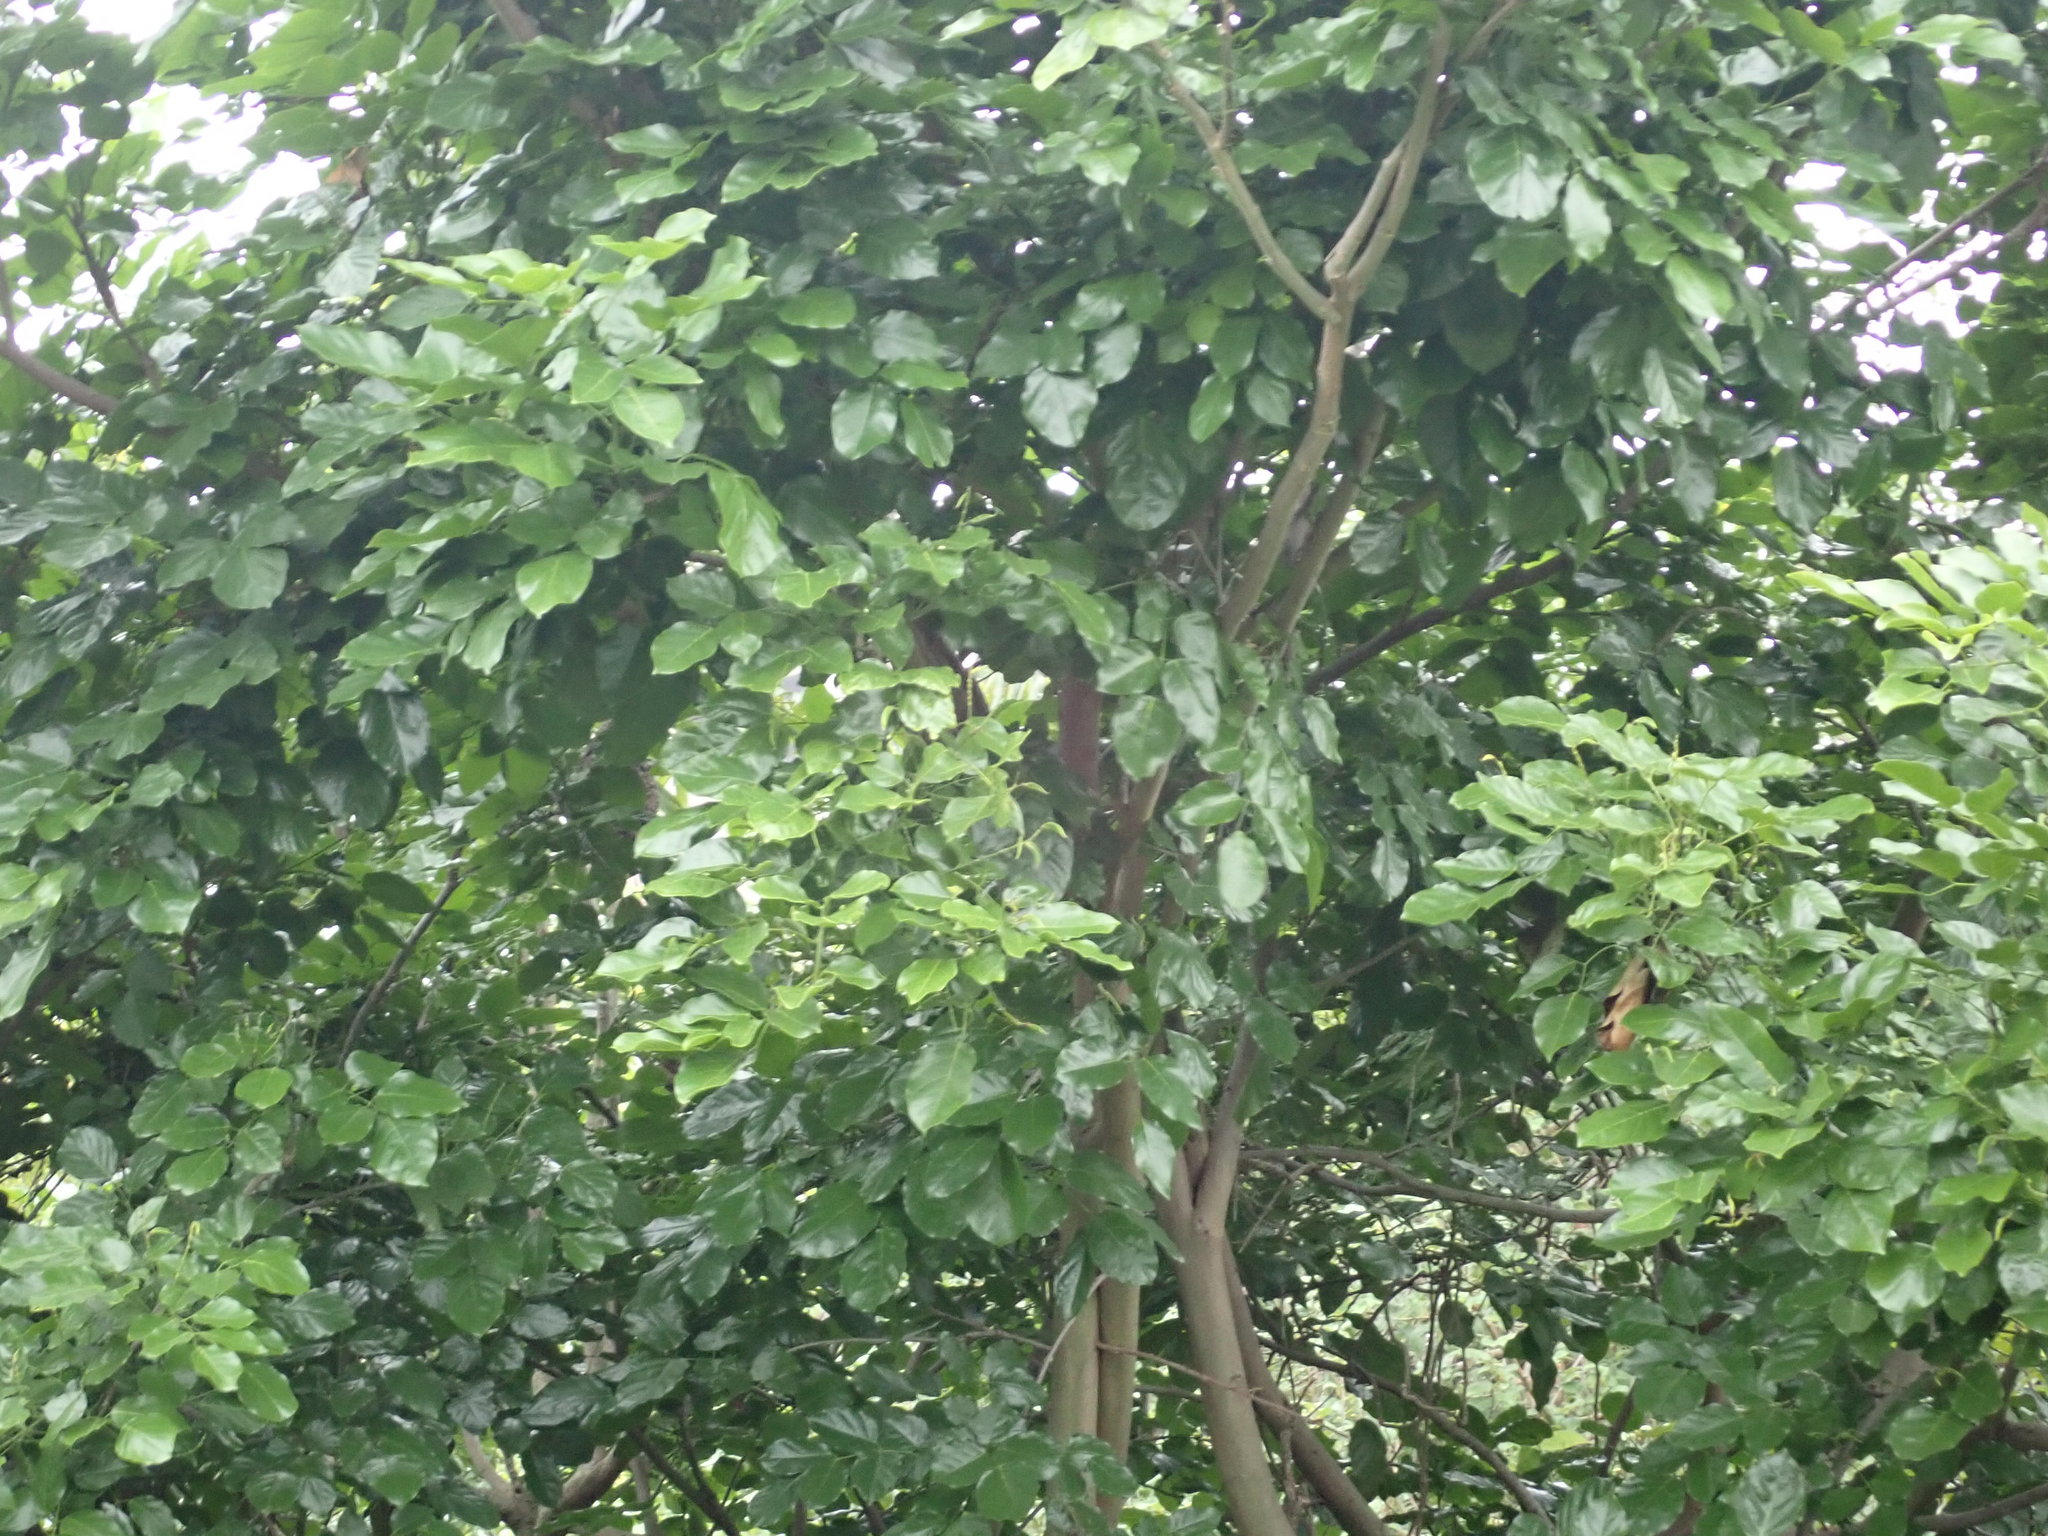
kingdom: Plantae
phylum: Tracheophyta
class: Magnoliopsida
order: Fabales
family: Fabaceae
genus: Pongamia
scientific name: Pongamia pinnata
